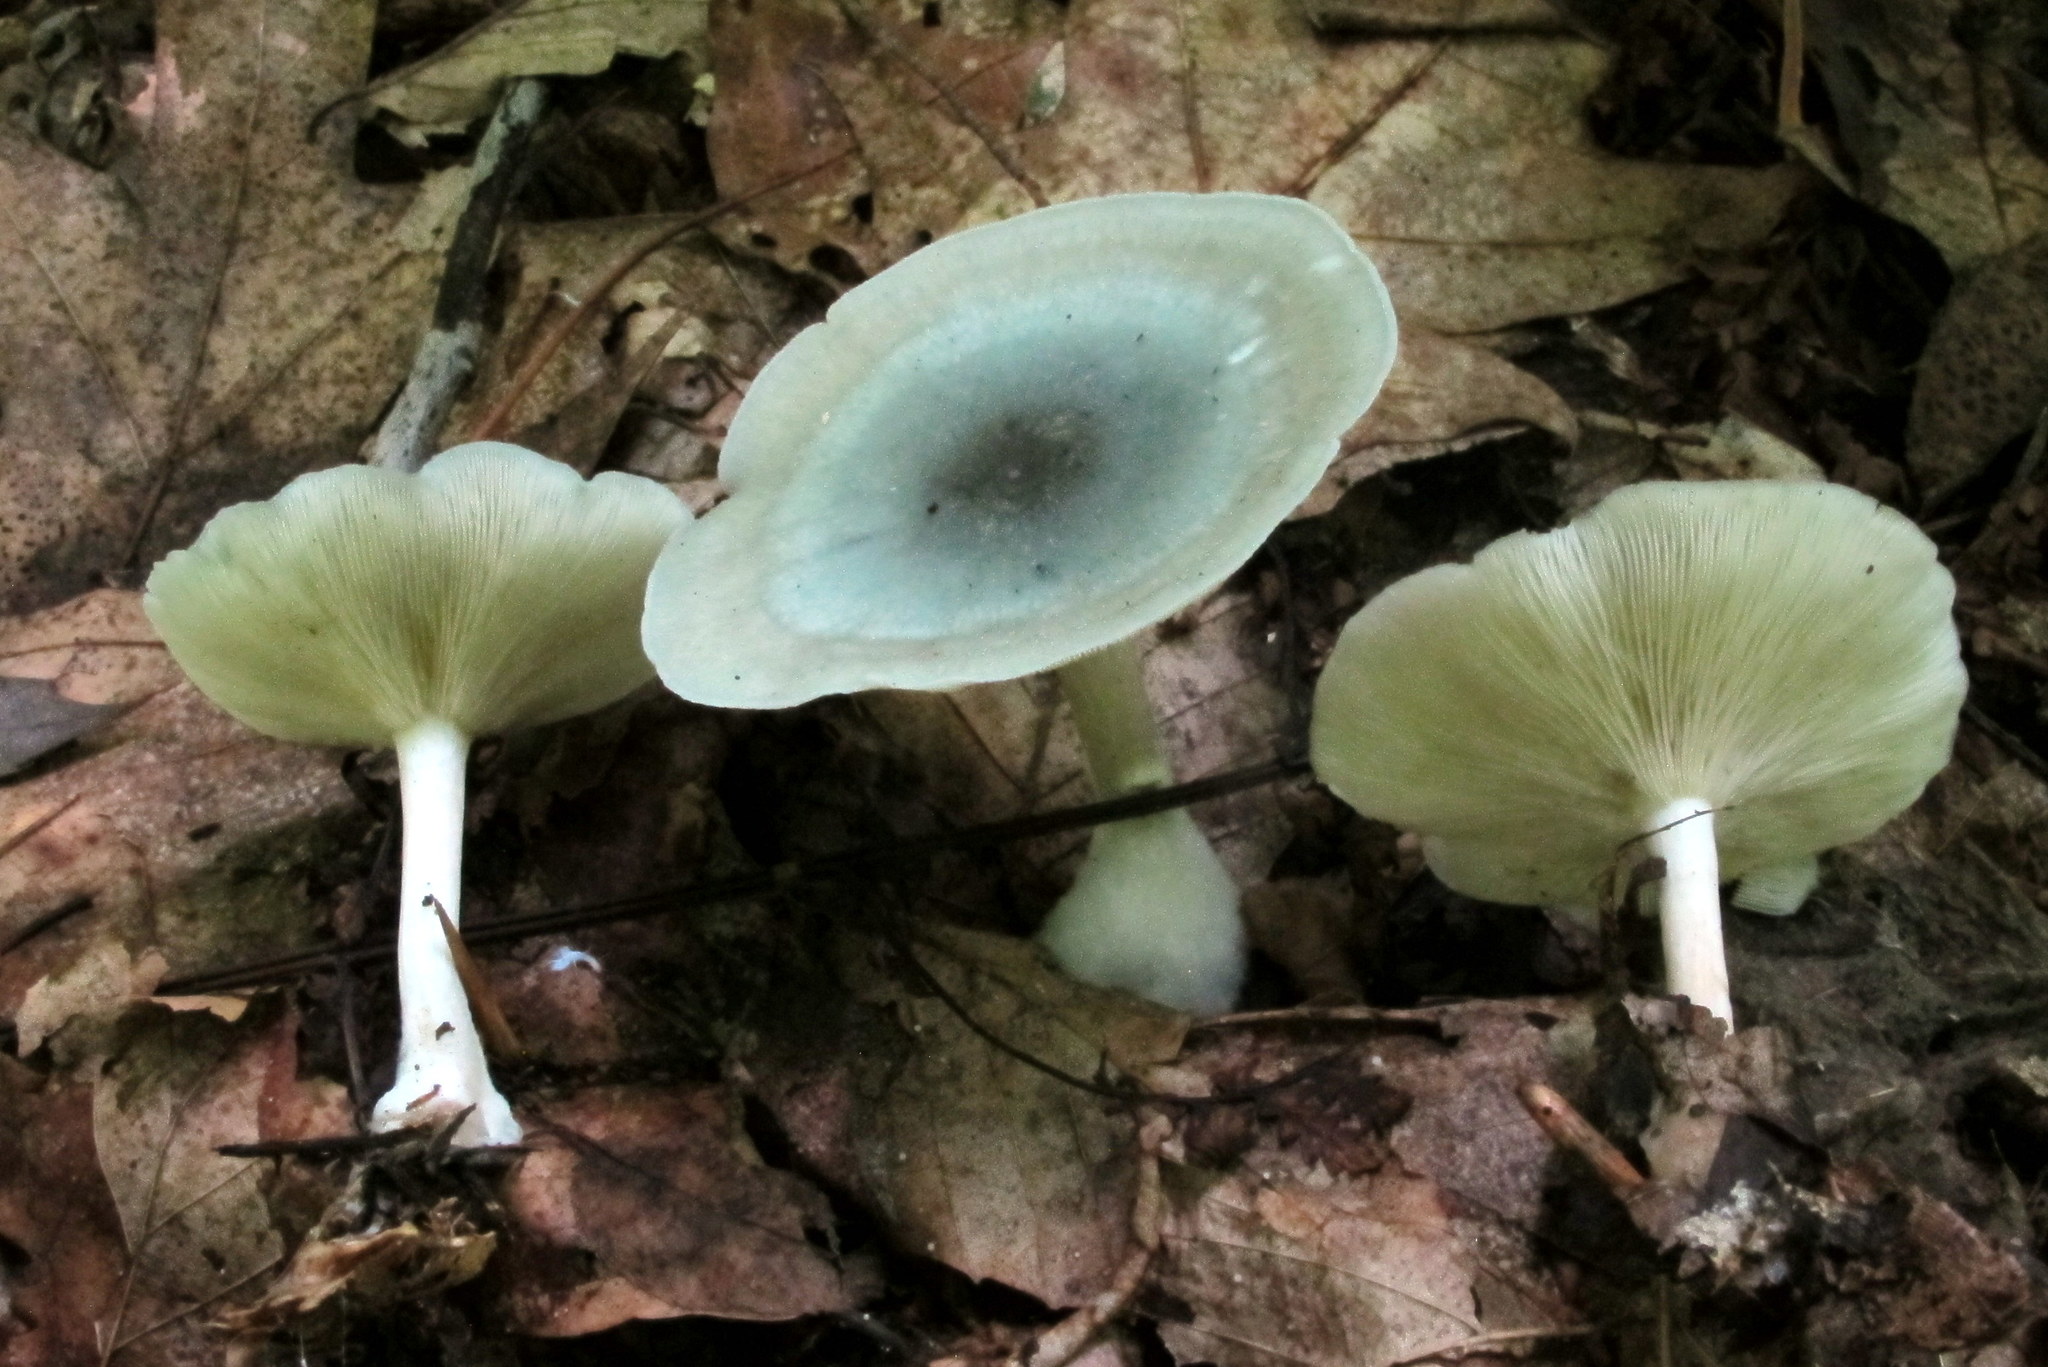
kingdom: Fungi
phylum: Basidiomycota
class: Agaricomycetes
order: Agaricales
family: Tricholomataceae
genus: Collybia
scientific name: Collybia
